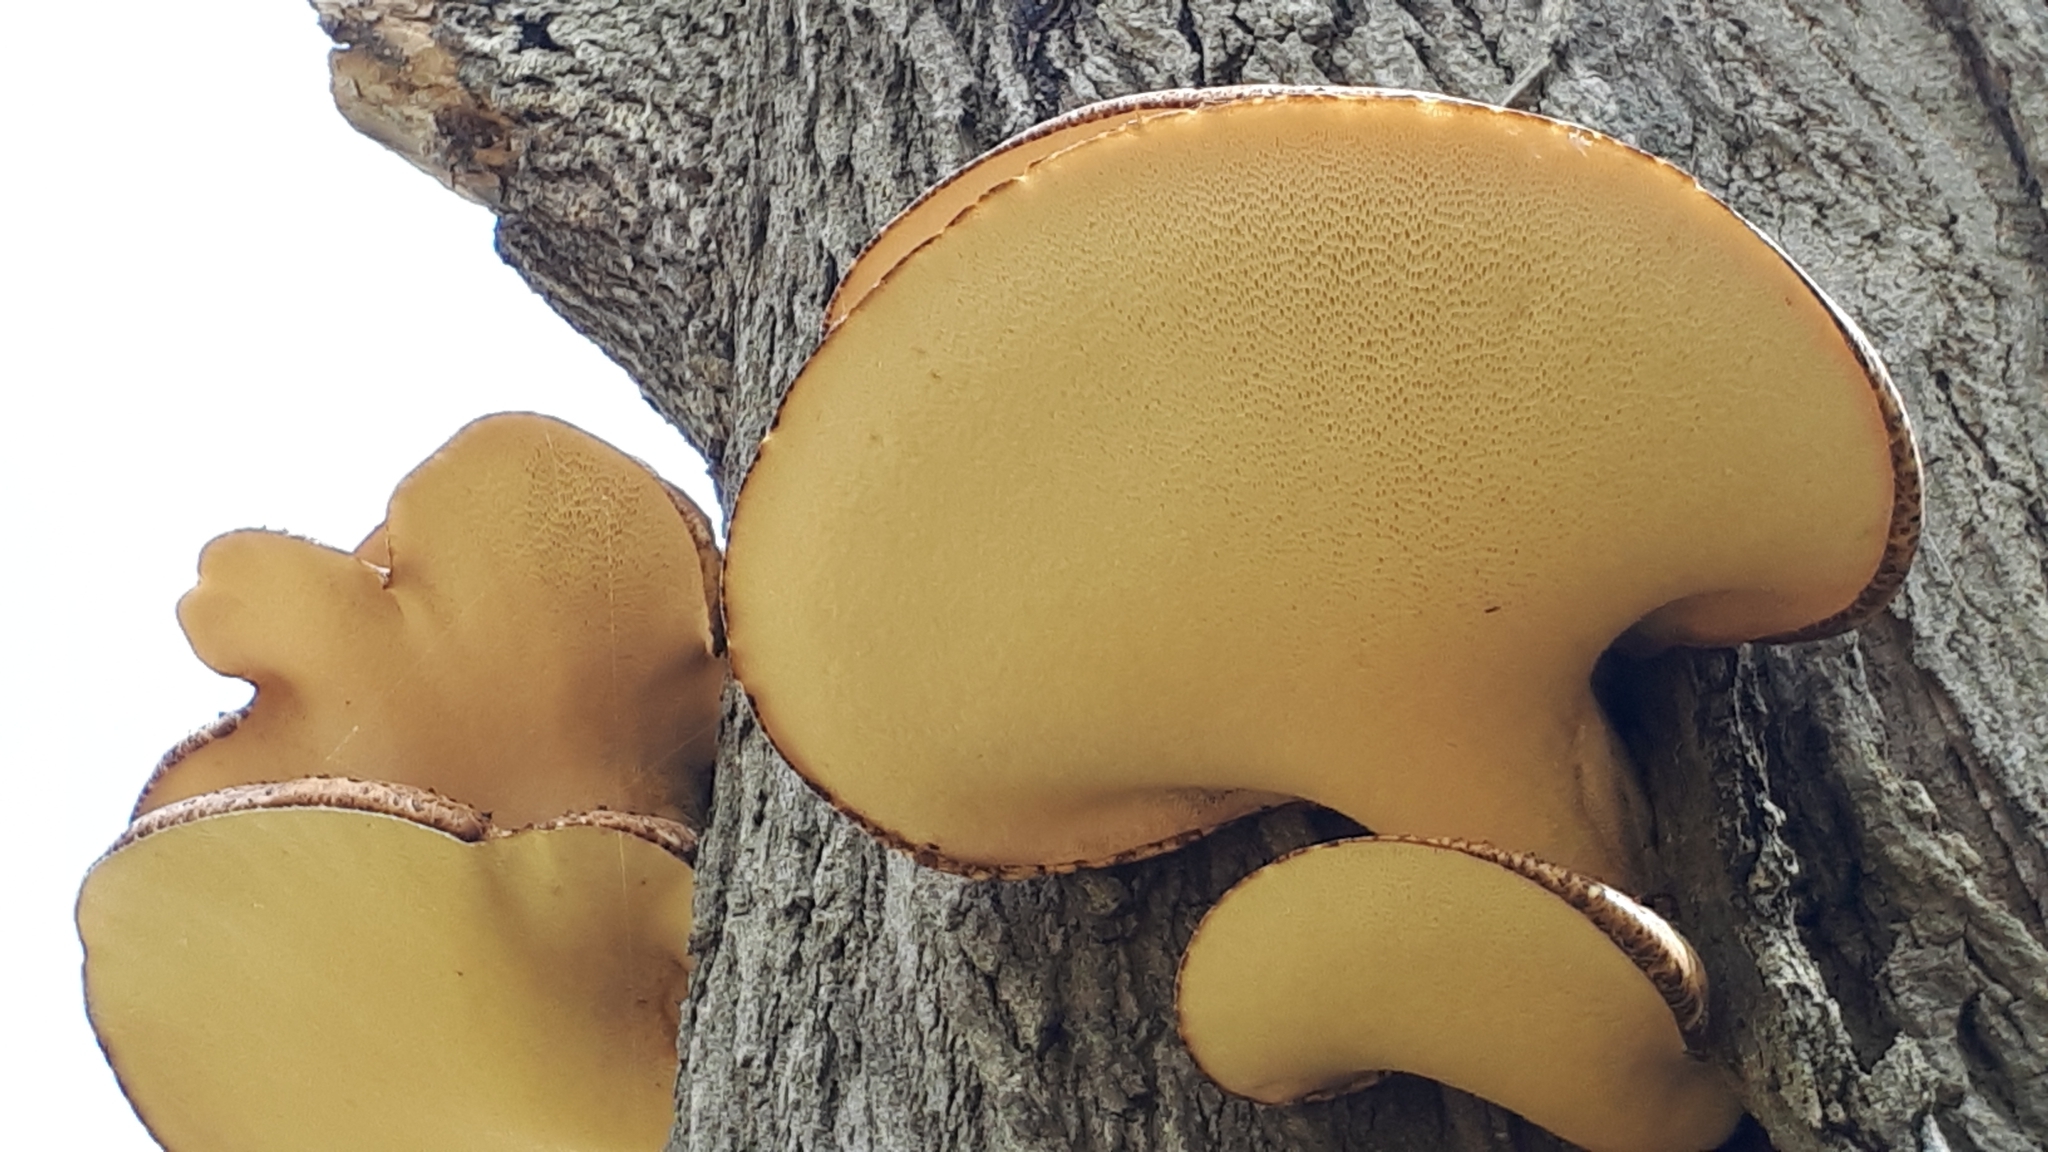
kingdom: Fungi
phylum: Basidiomycota
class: Agaricomycetes
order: Polyporales
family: Polyporaceae
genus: Cerioporus
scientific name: Cerioporus squamosus
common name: Dryad's saddle
